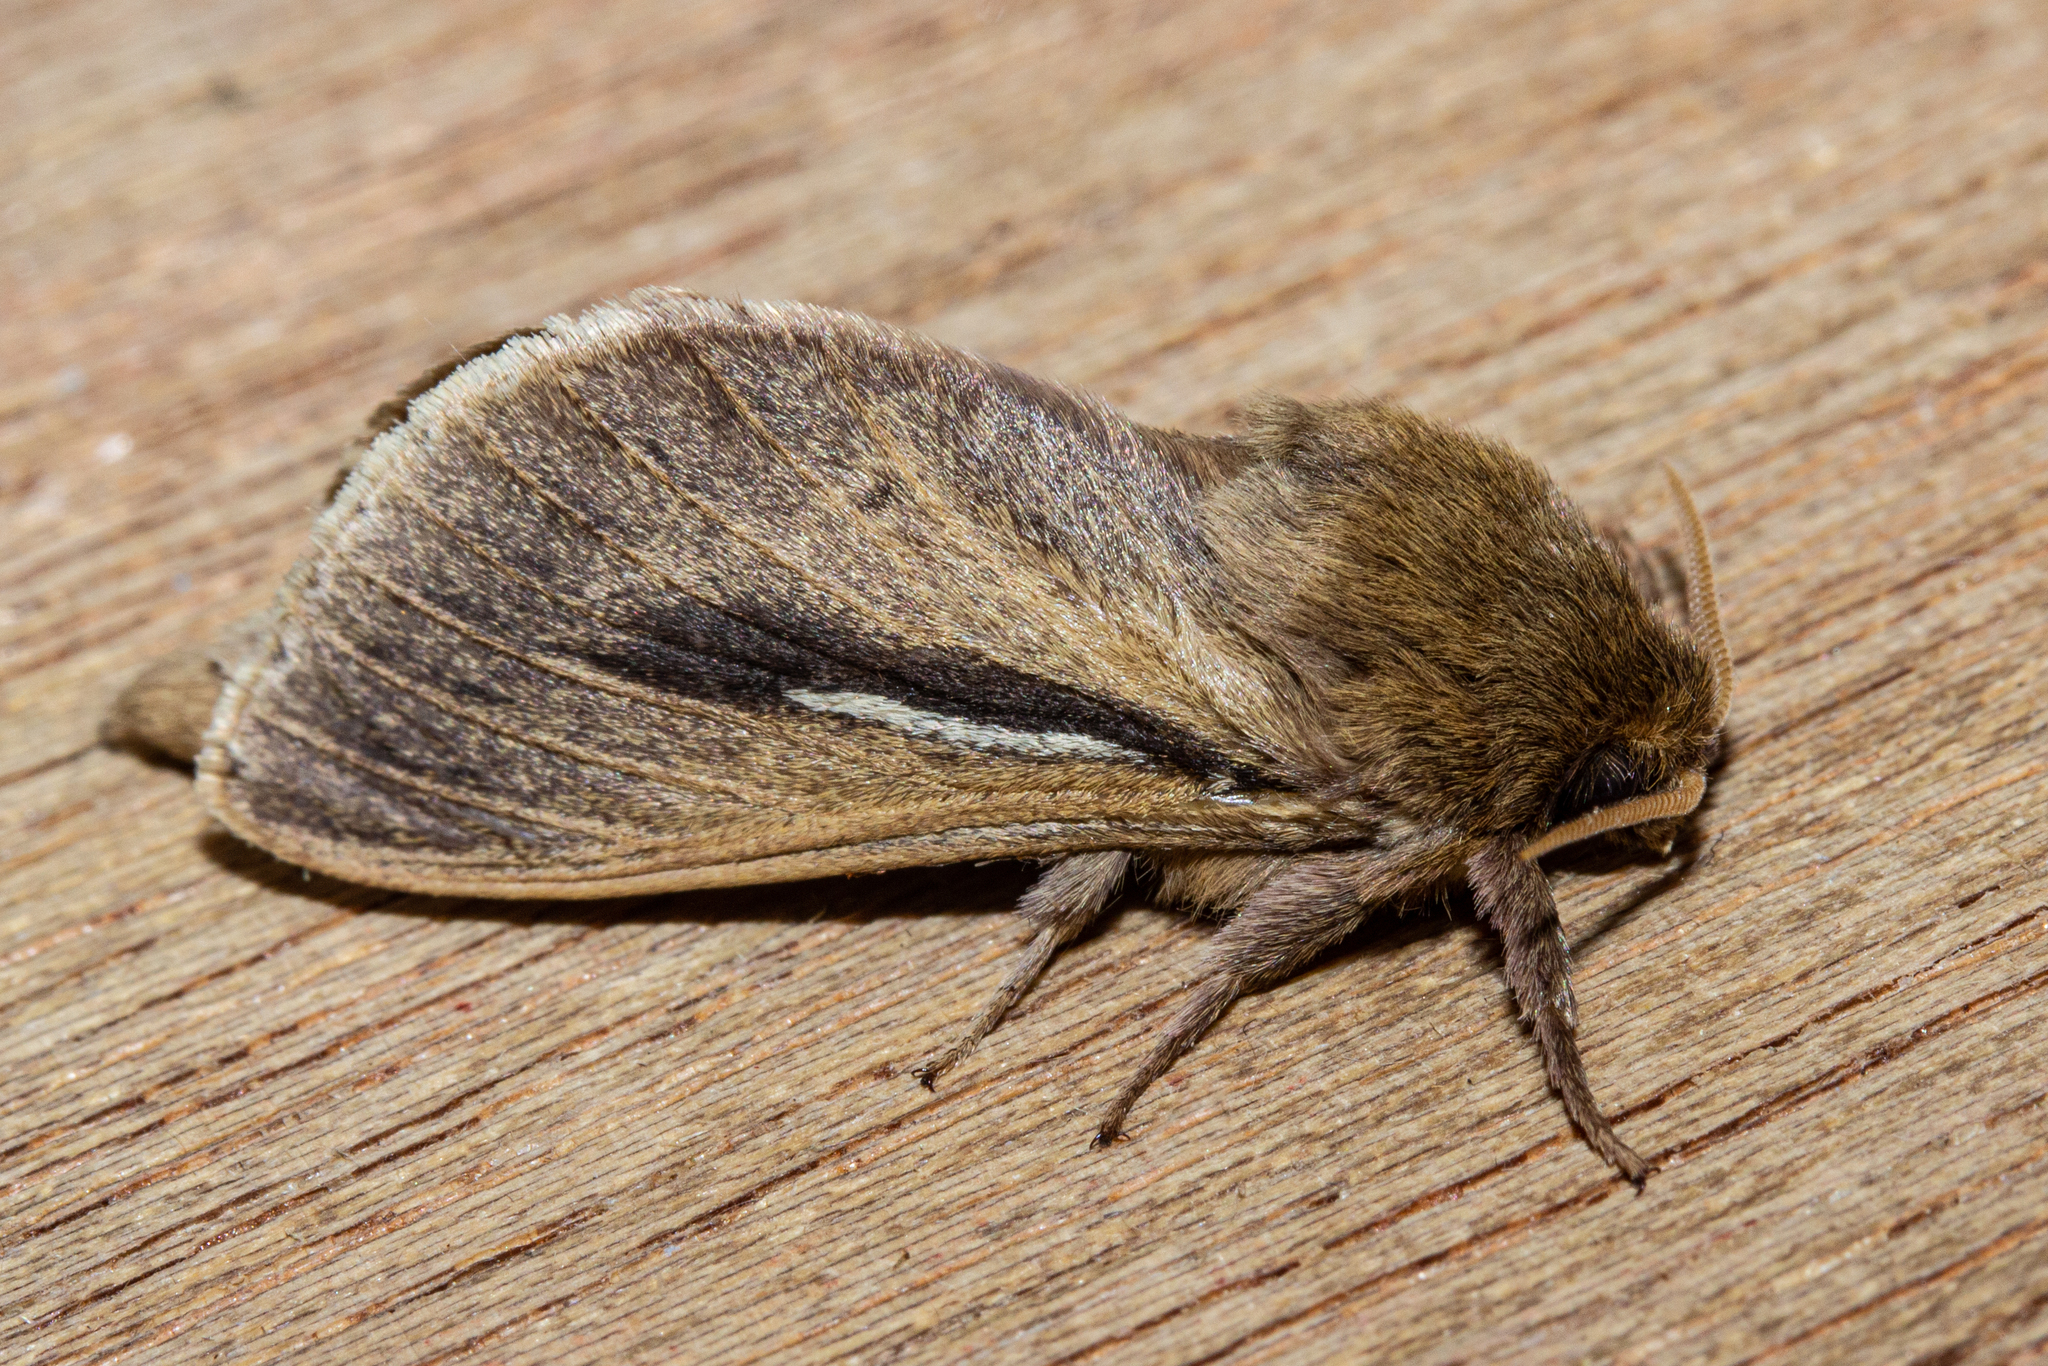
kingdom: Animalia
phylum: Arthropoda
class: Insecta
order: Lepidoptera
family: Hepialidae
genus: Wiseana
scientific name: Wiseana umbraculatus
